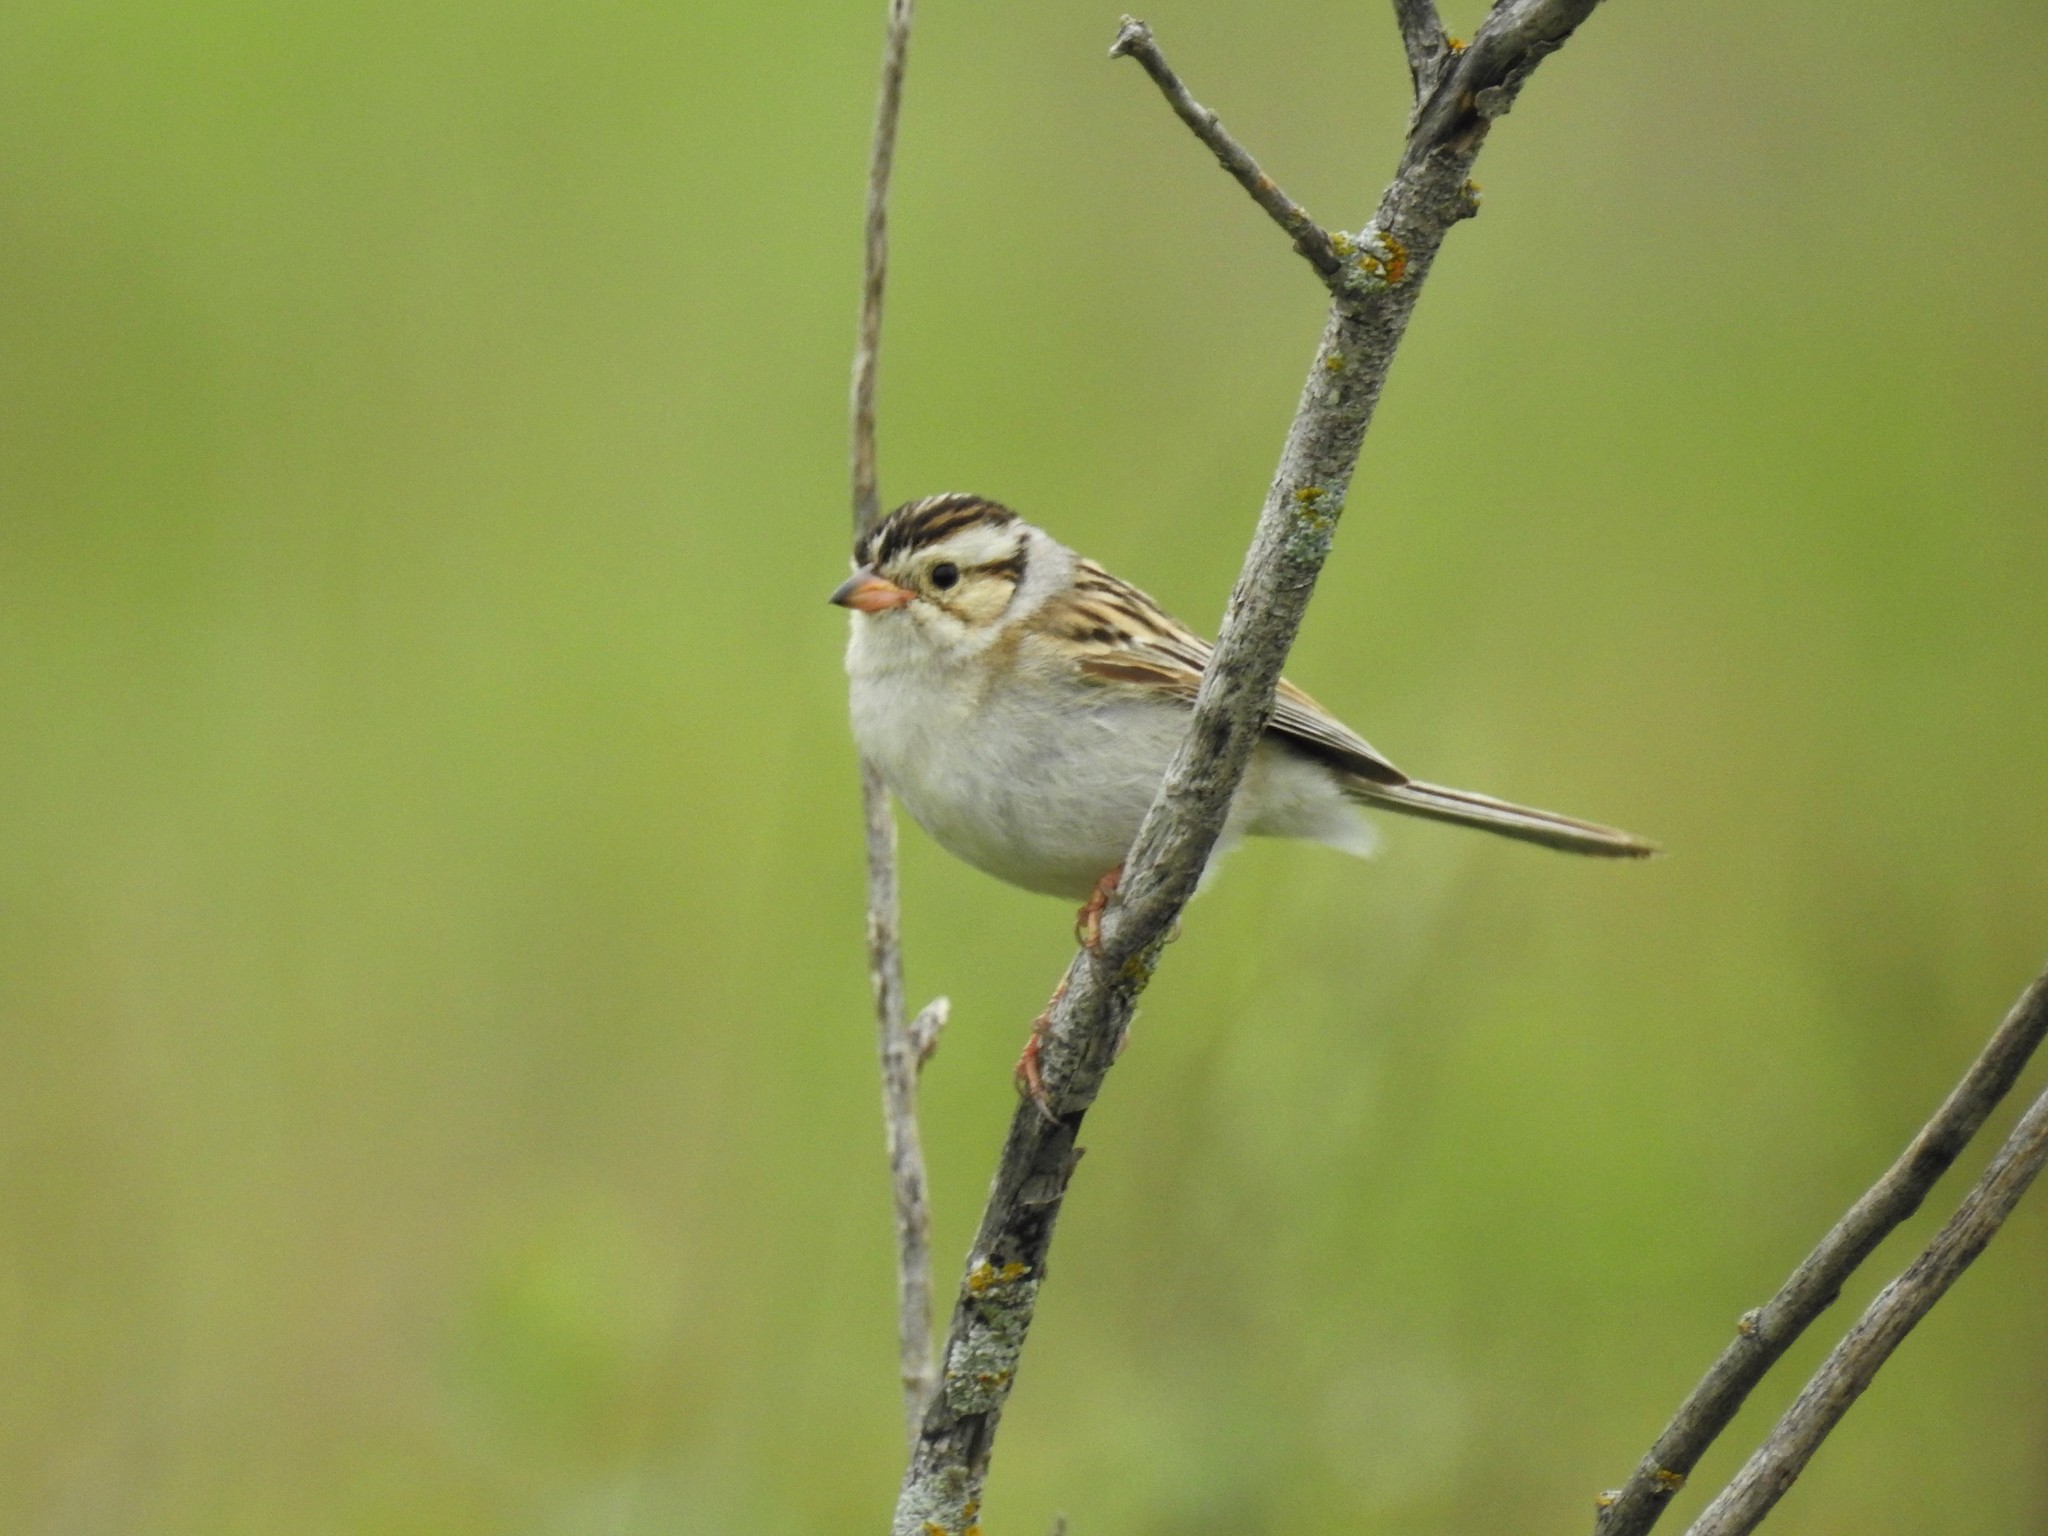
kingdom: Animalia
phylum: Chordata
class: Aves
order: Passeriformes
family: Passerellidae
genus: Spizella
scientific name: Spizella pallida
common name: Clay-colored sparrow
